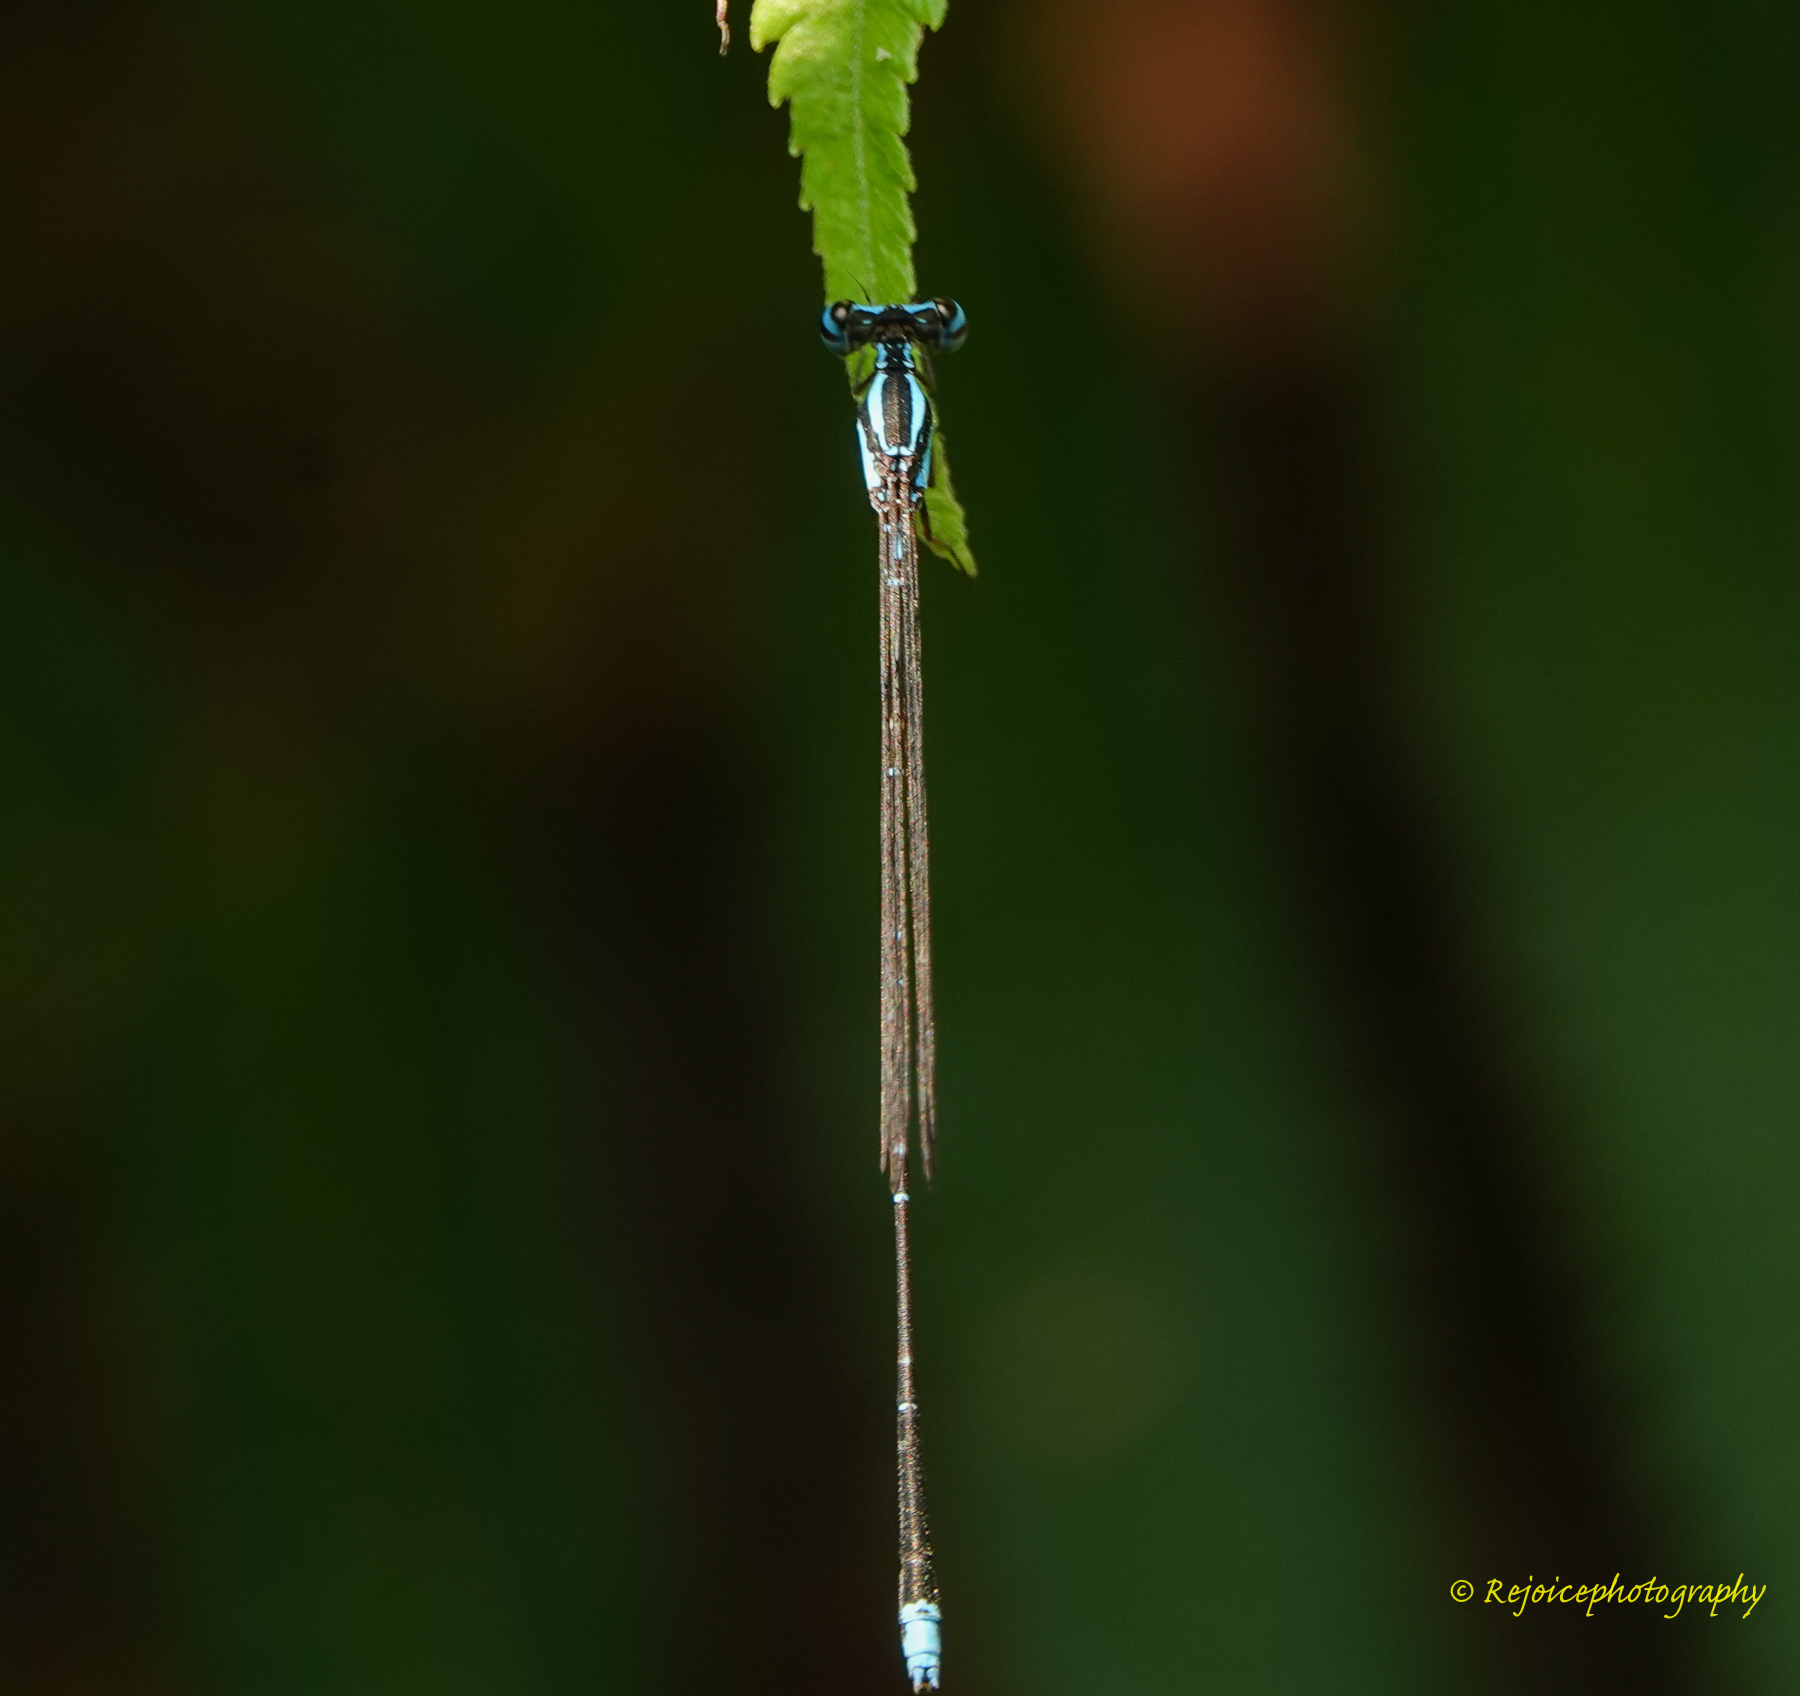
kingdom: Animalia
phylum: Arthropoda
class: Insecta
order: Odonata
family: Platycnemididae
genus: Elattoneura
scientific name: Elattoneura campioni
